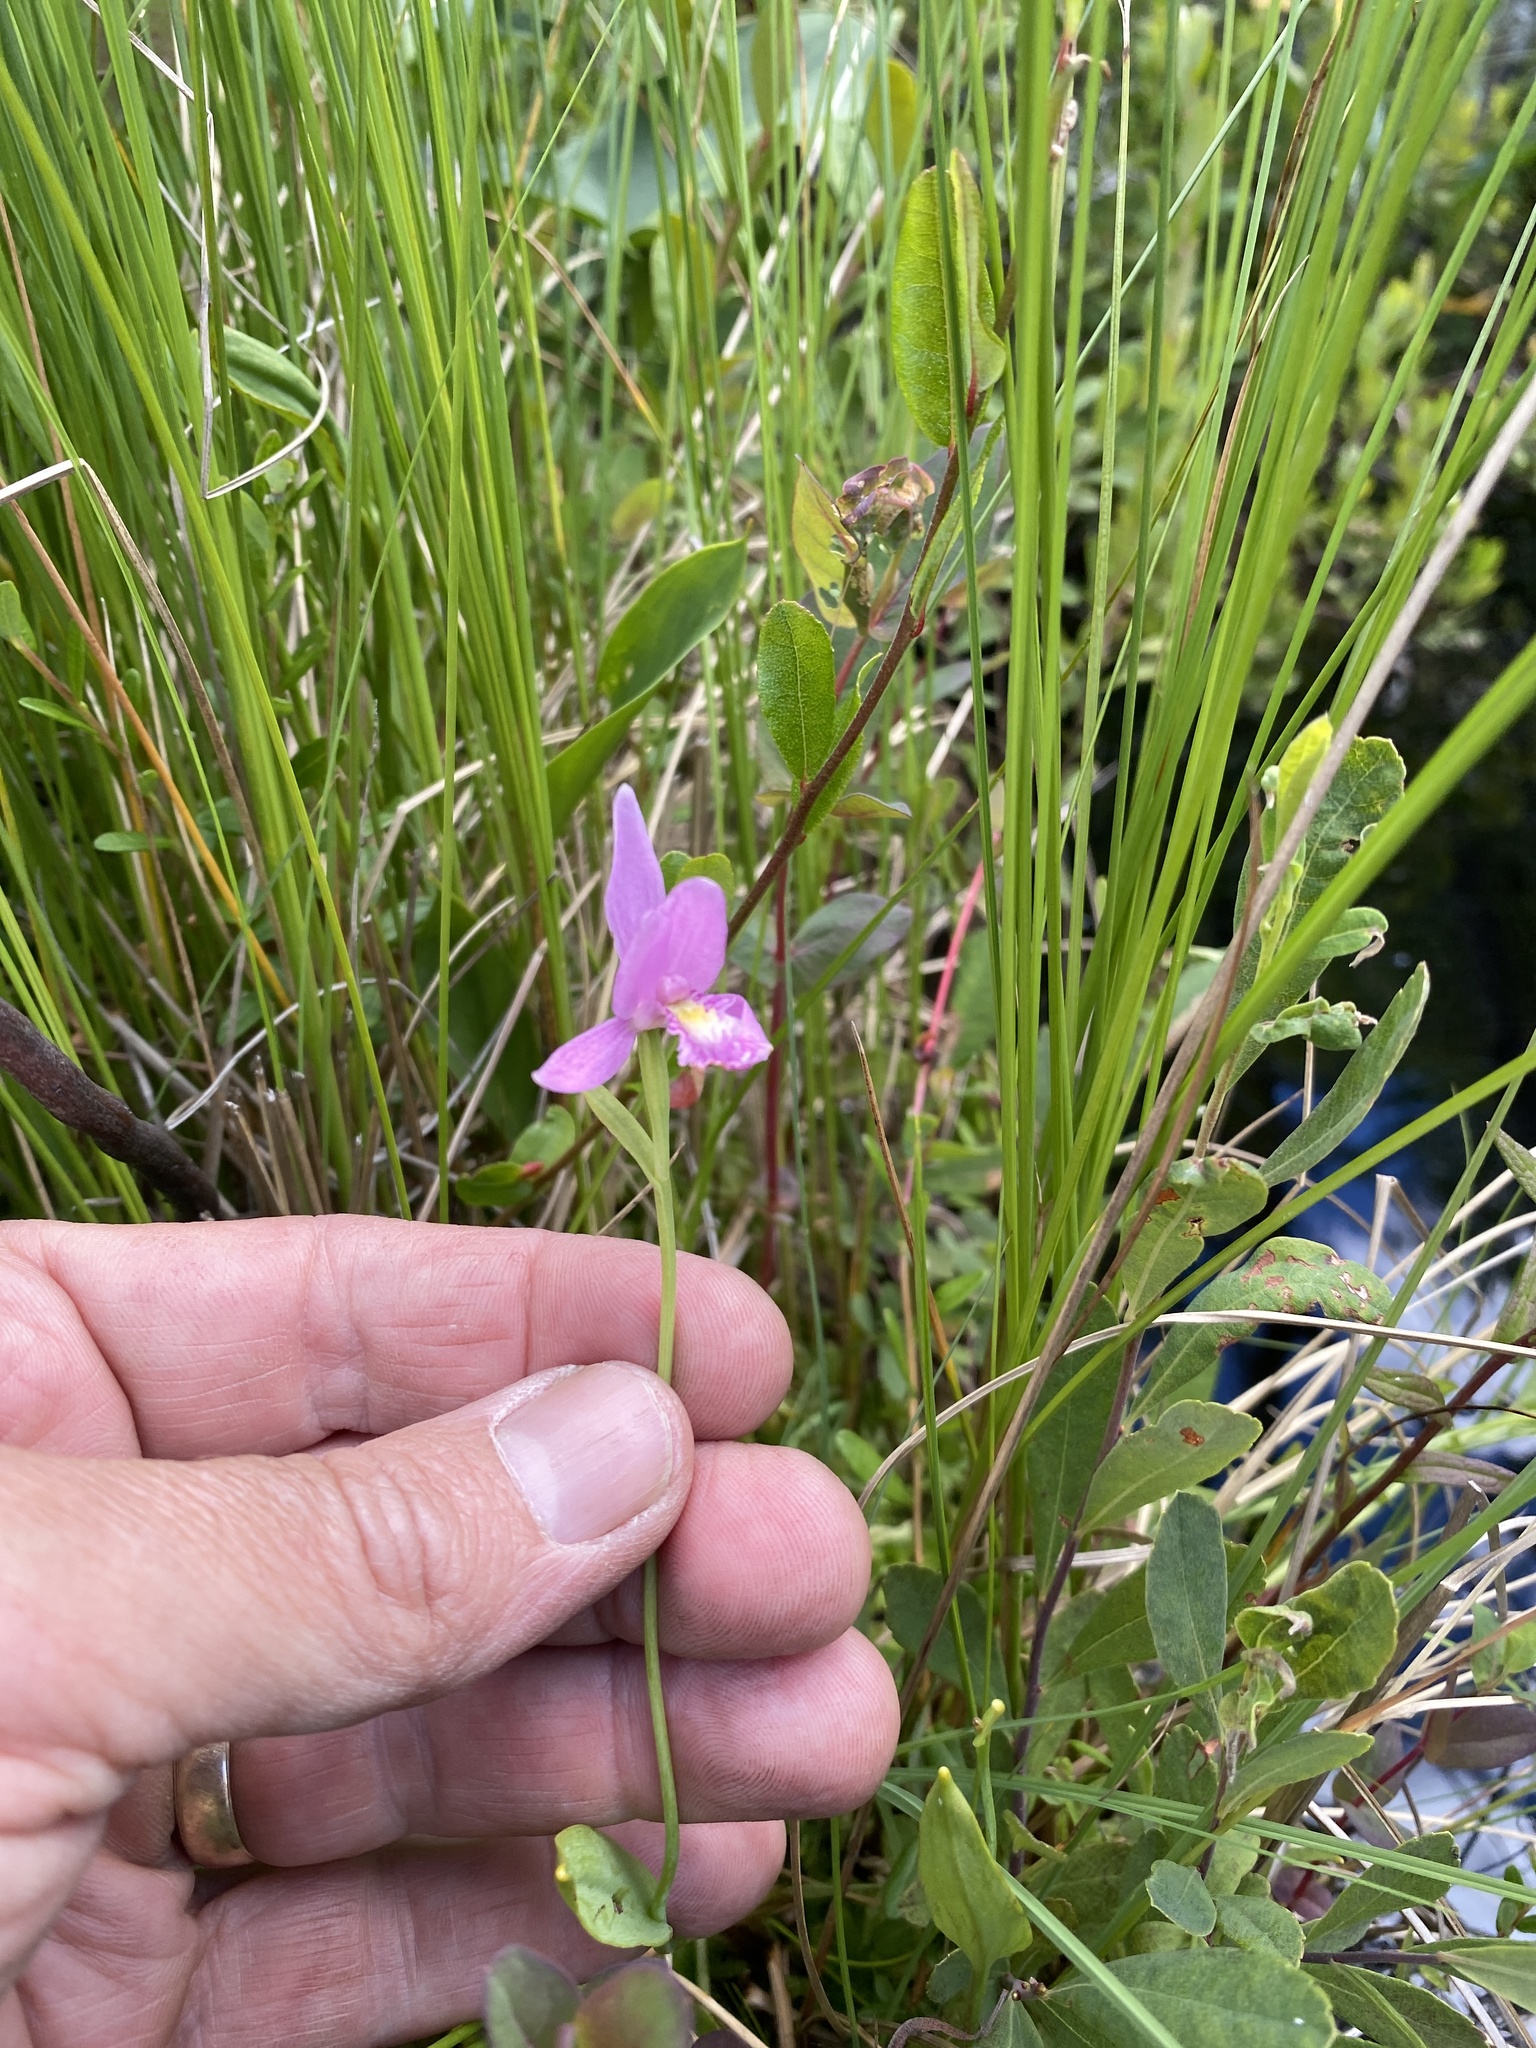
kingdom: Plantae
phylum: Tracheophyta
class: Liliopsida
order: Asparagales
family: Orchidaceae
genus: Pogonia
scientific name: Pogonia ophioglossoides
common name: Rose pogonia
